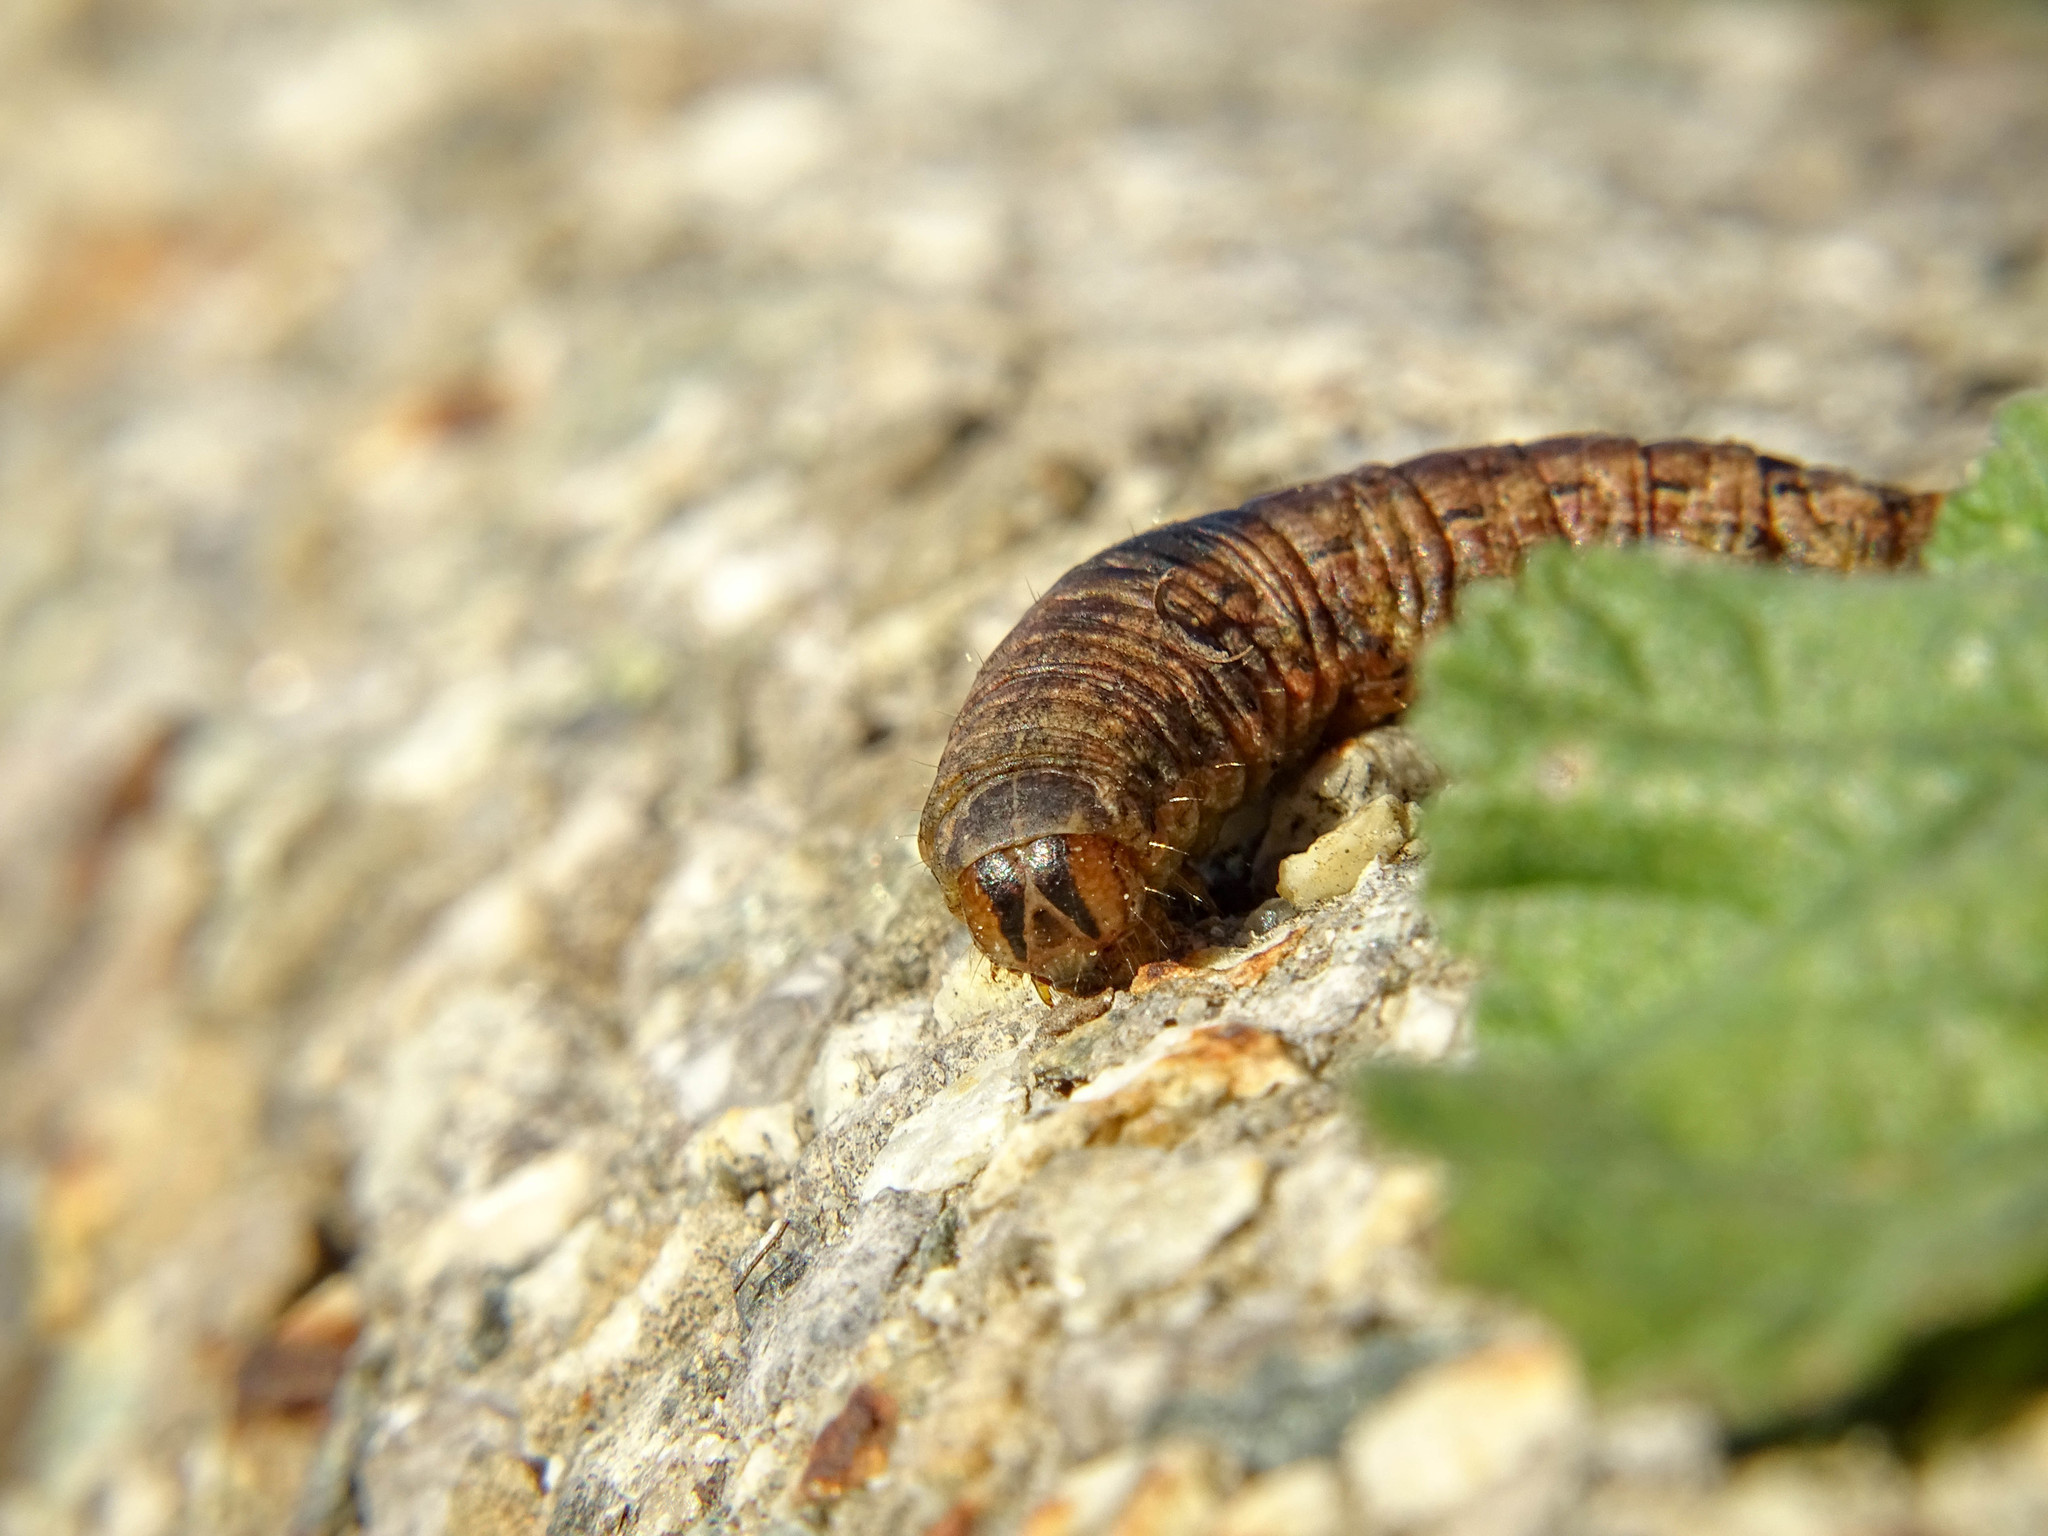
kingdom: Animalia
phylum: Arthropoda
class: Insecta
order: Lepidoptera
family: Noctuidae
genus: Noctua
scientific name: Noctua pronuba
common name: Large yellow underwing
